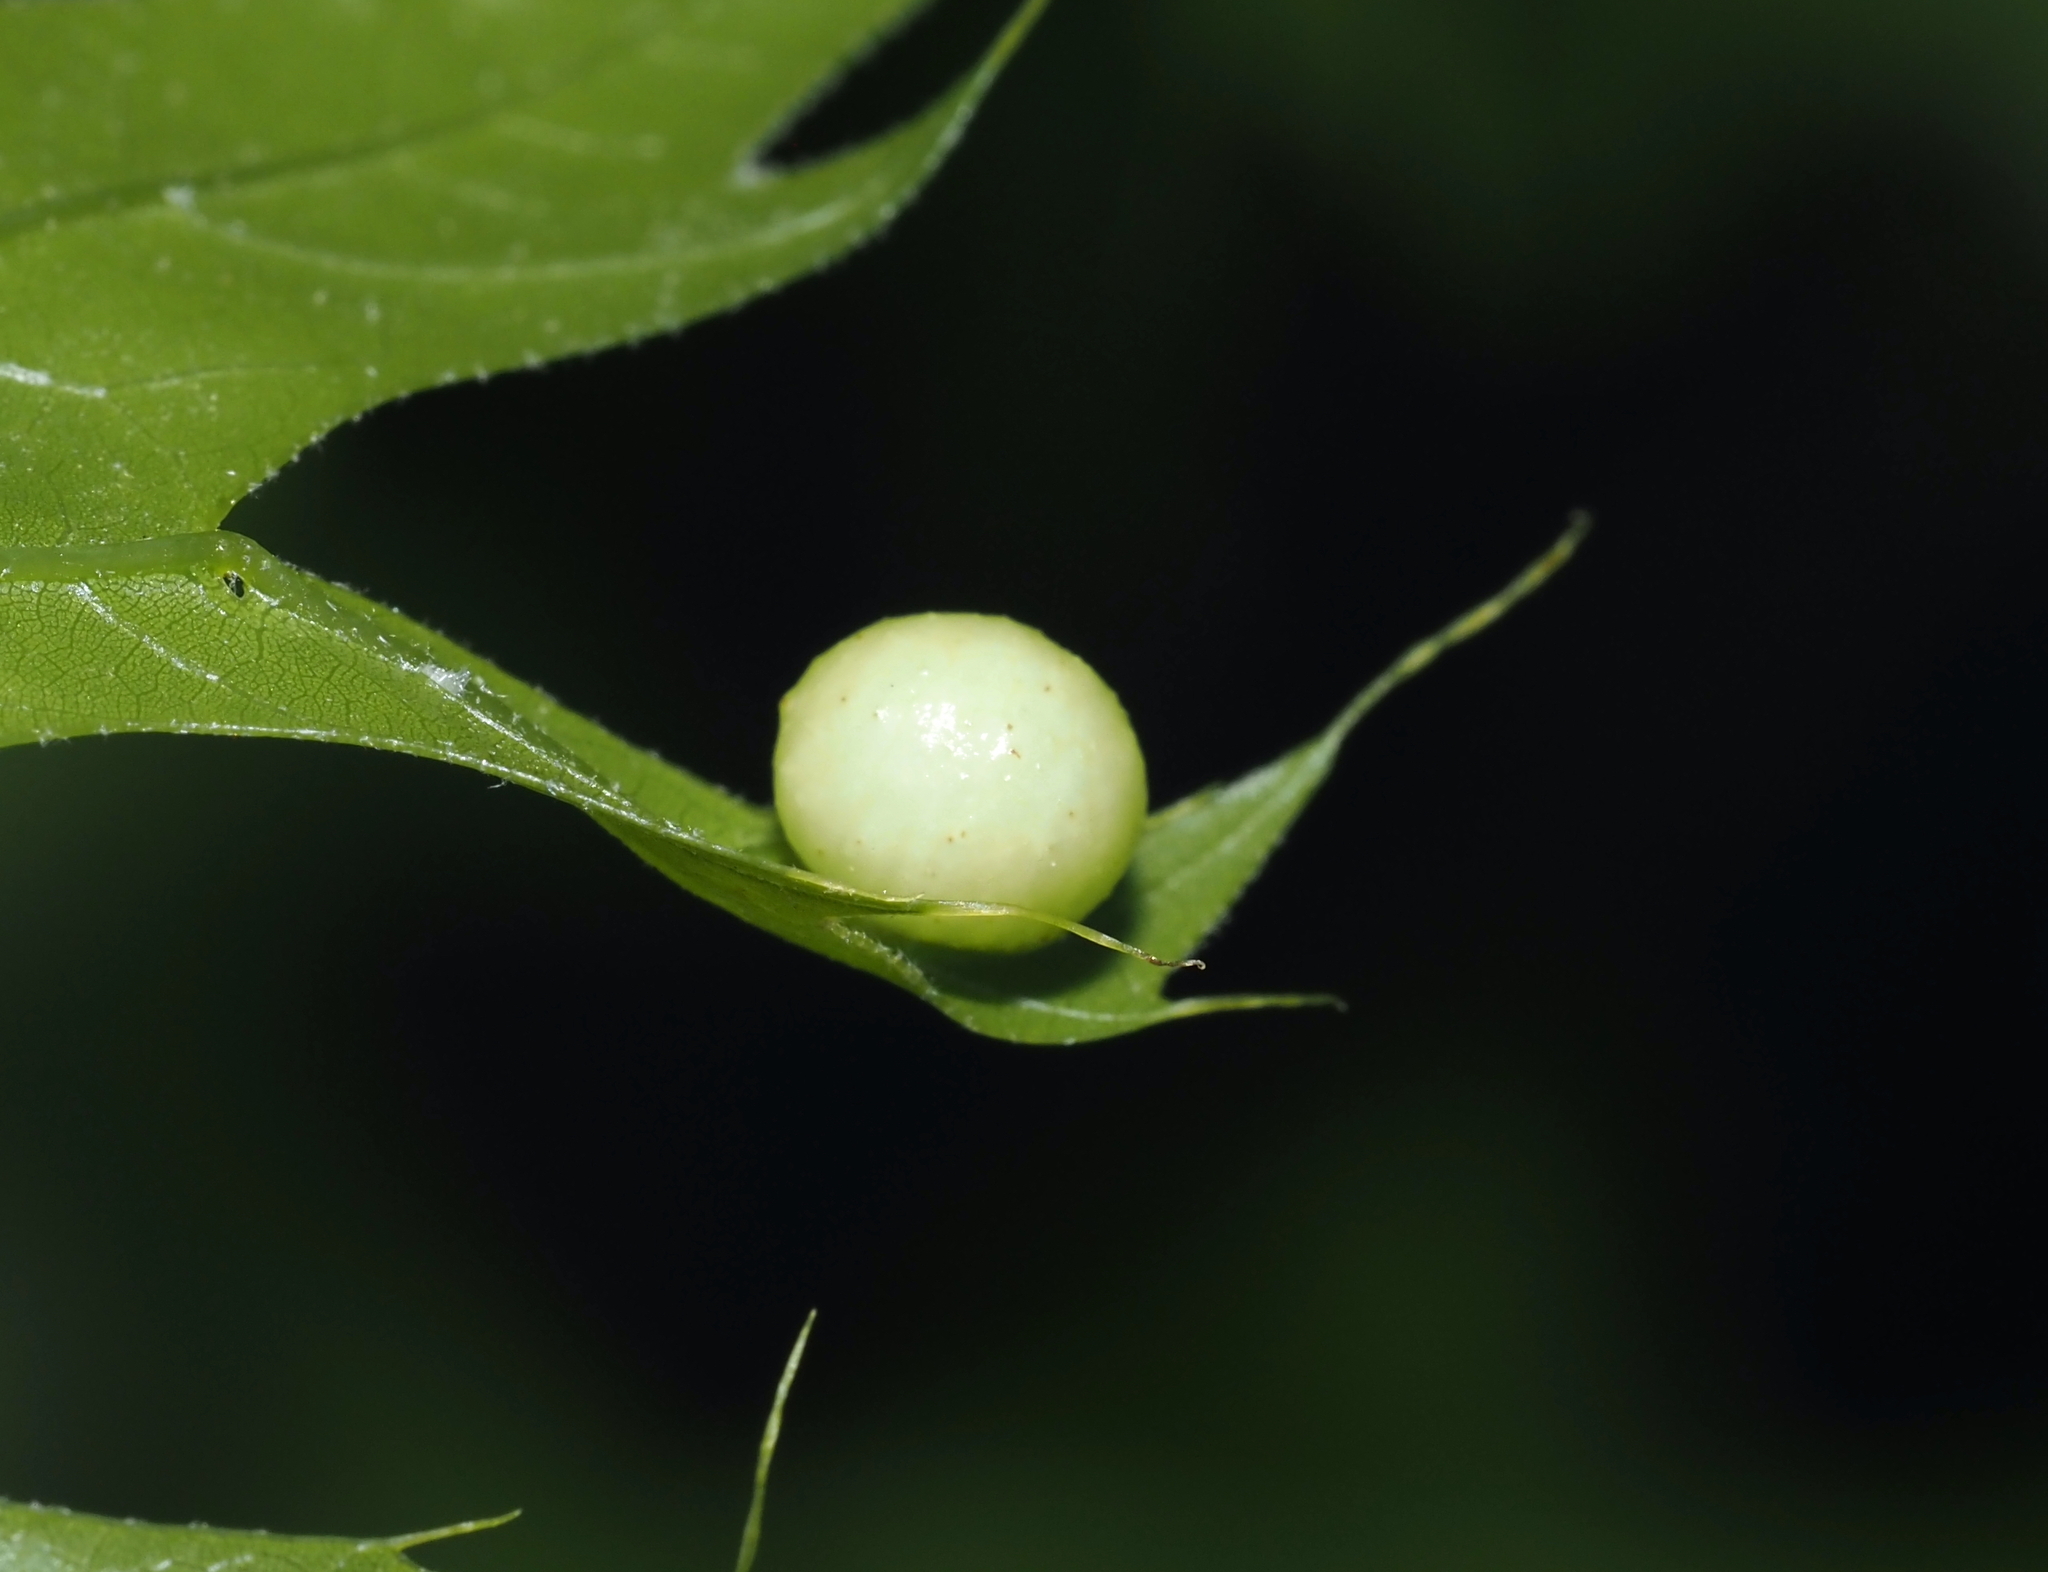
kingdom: Animalia
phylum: Arthropoda
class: Insecta
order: Hymenoptera
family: Cynipidae
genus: Amphibolips
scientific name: Amphibolips
